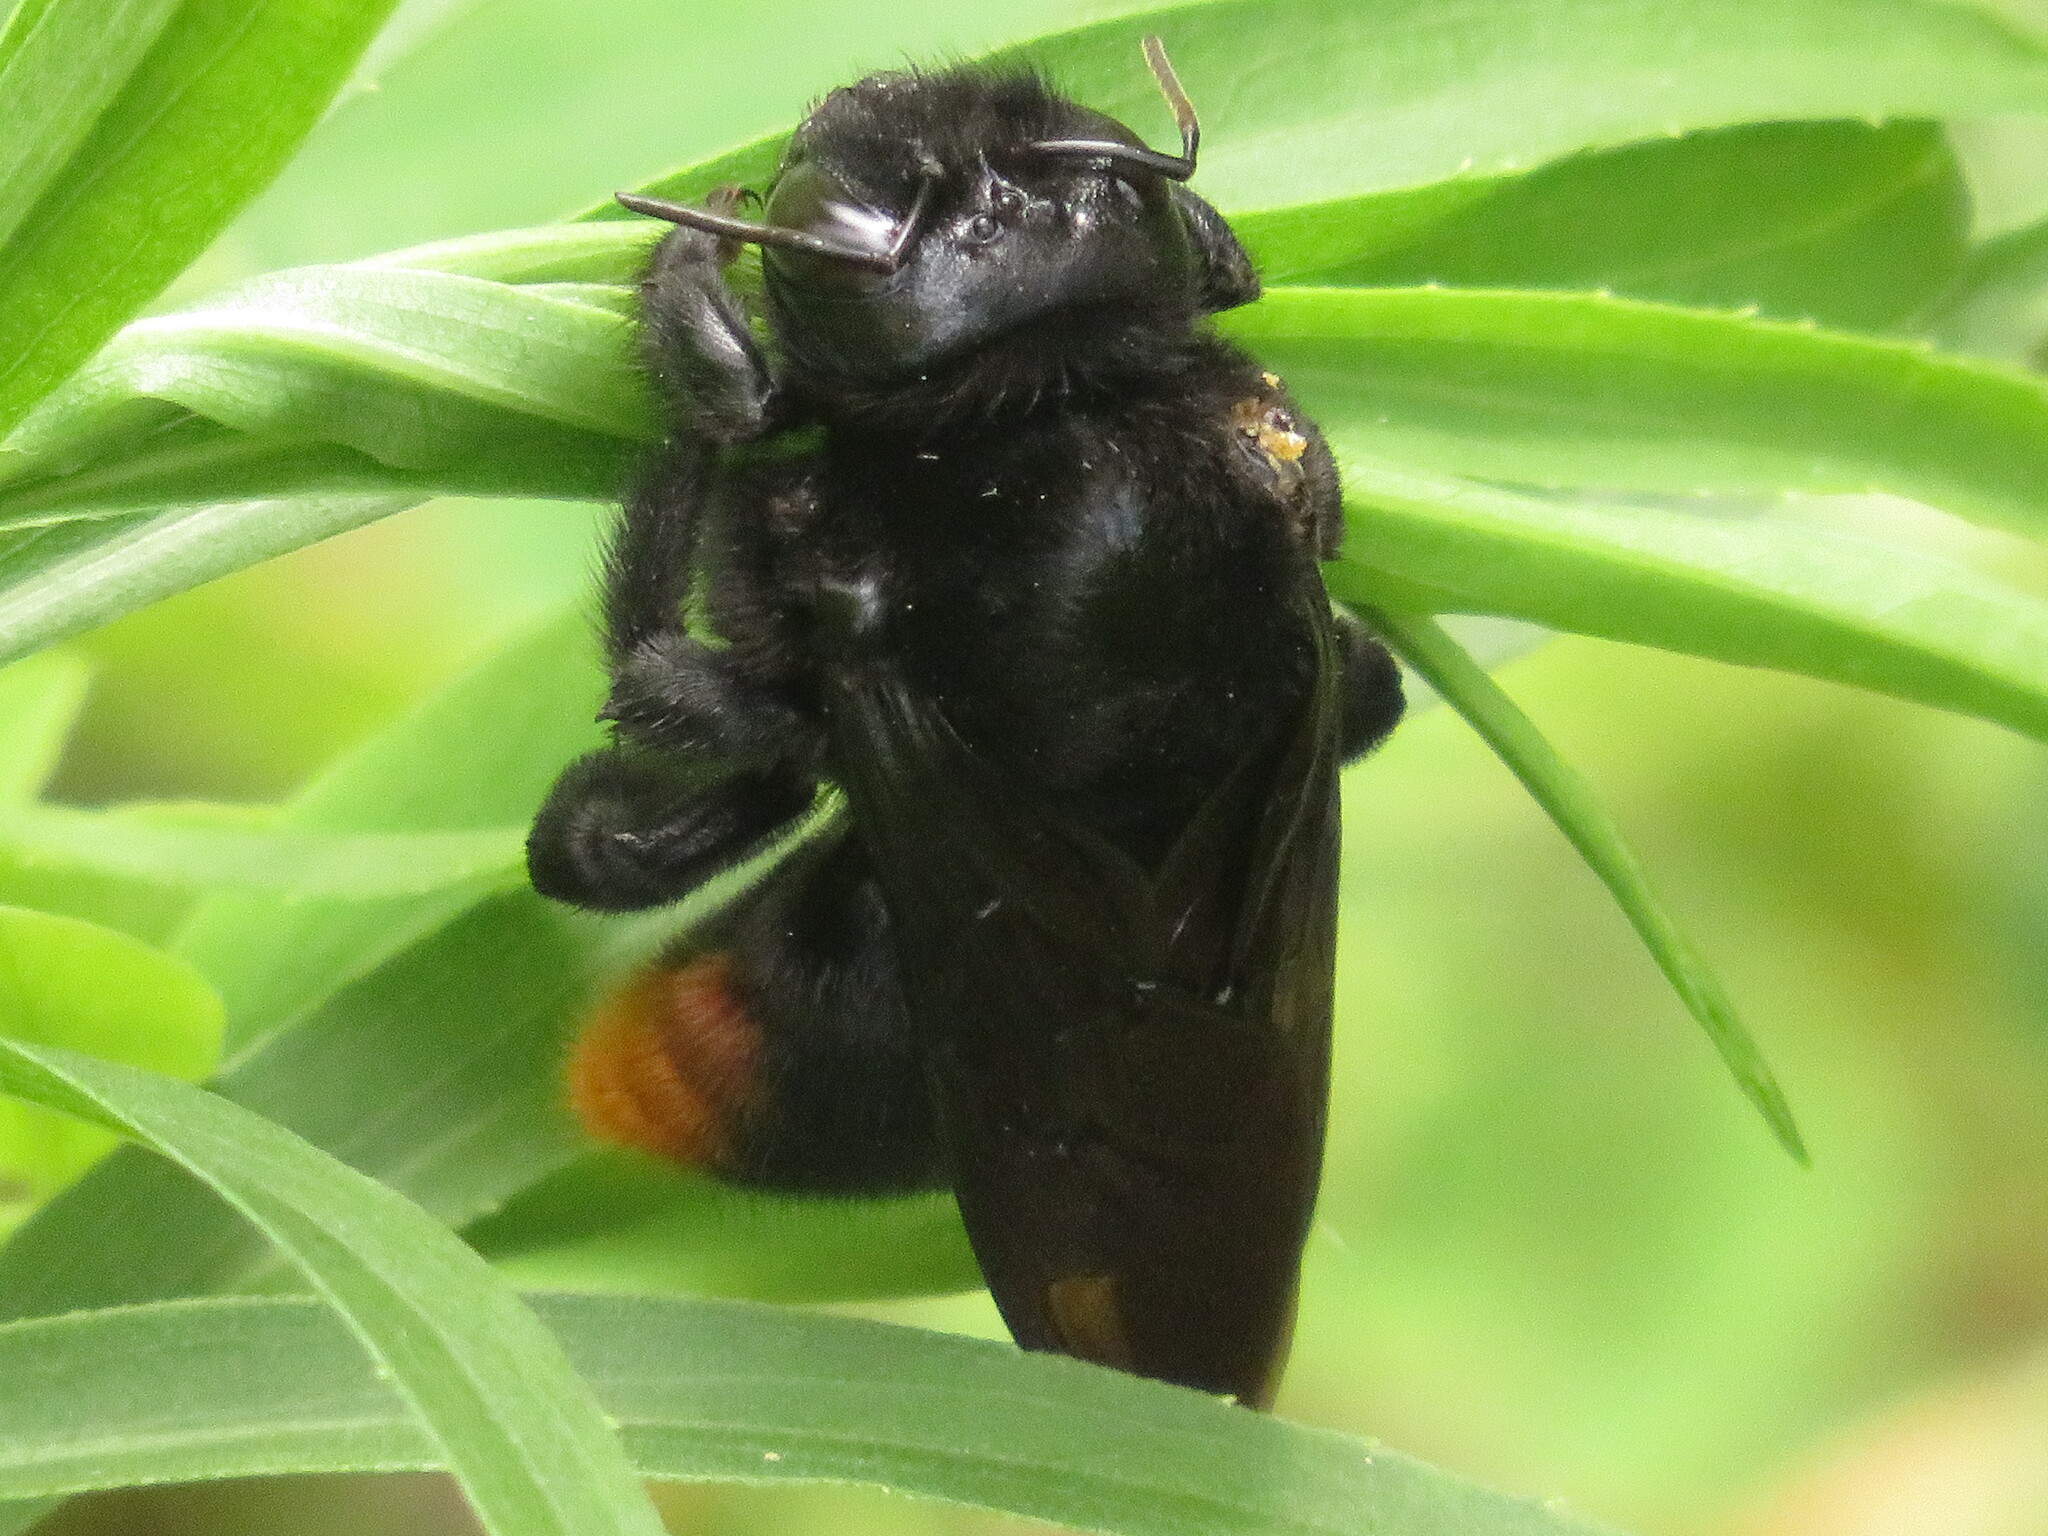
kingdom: Animalia
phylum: Arthropoda
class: Insecta
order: Hymenoptera
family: Apidae
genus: Xylocopa
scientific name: Xylocopa augusti
